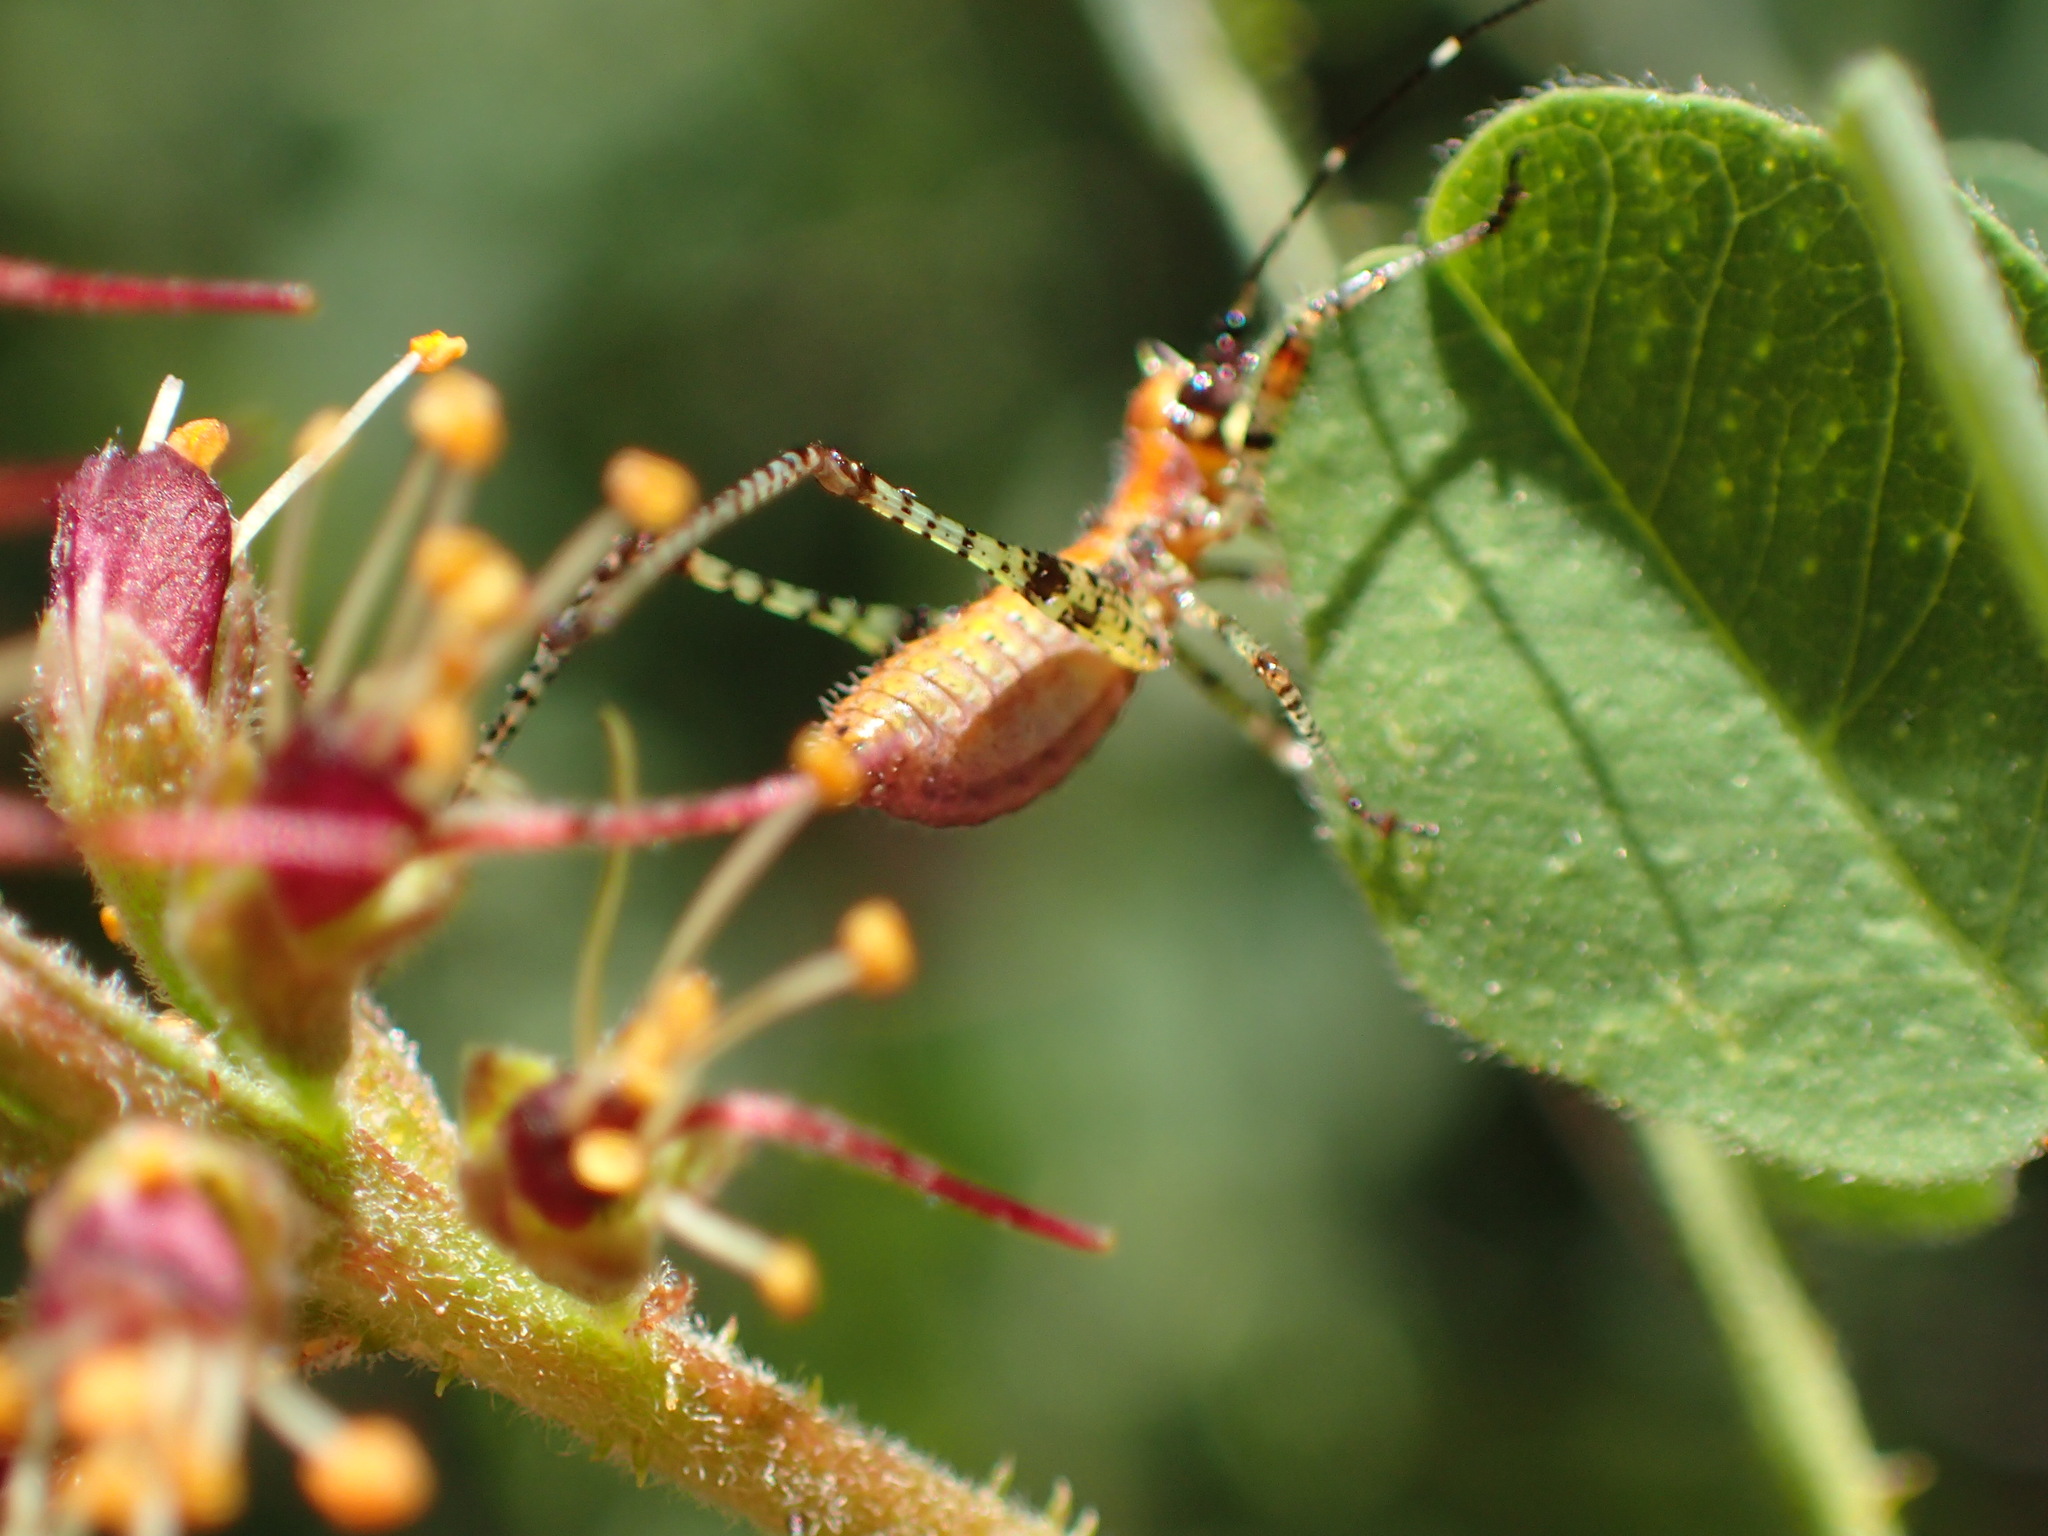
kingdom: Animalia
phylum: Arthropoda
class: Insecta
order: Orthoptera
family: Tettigoniidae
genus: Scudderia
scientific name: Scudderia
